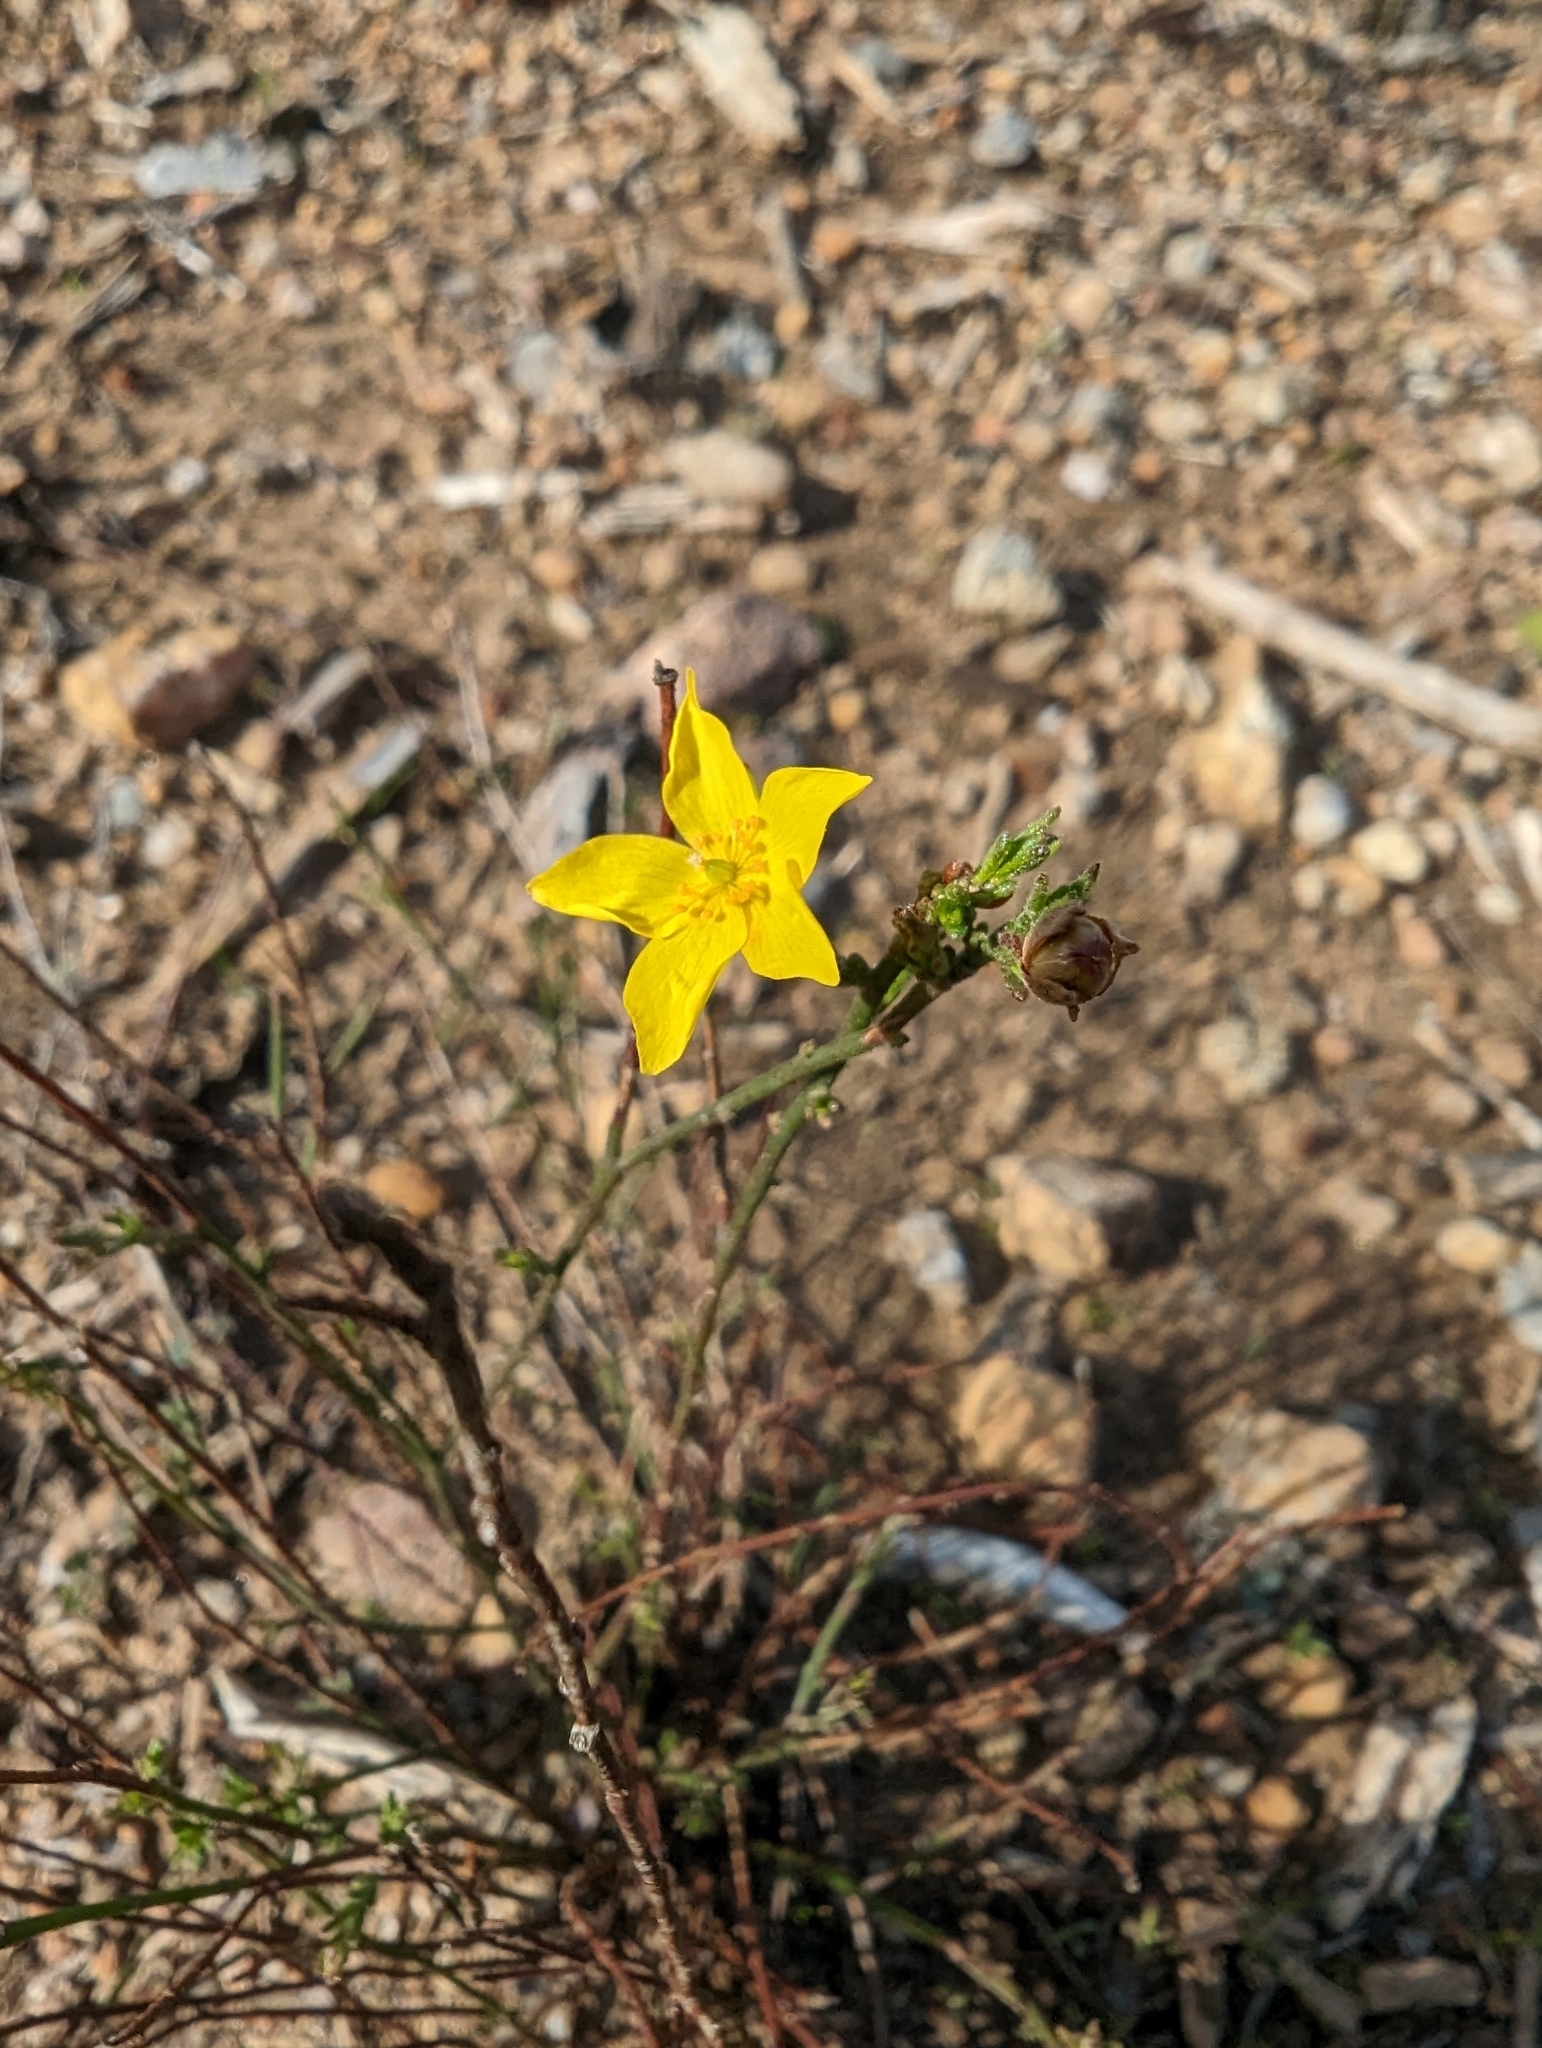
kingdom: Plantae
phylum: Tracheophyta
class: Magnoliopsida
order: Malvales
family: Cistaceae
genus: Crocanthemum
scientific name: Crocanthemum scoparium
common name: Broom-rose
